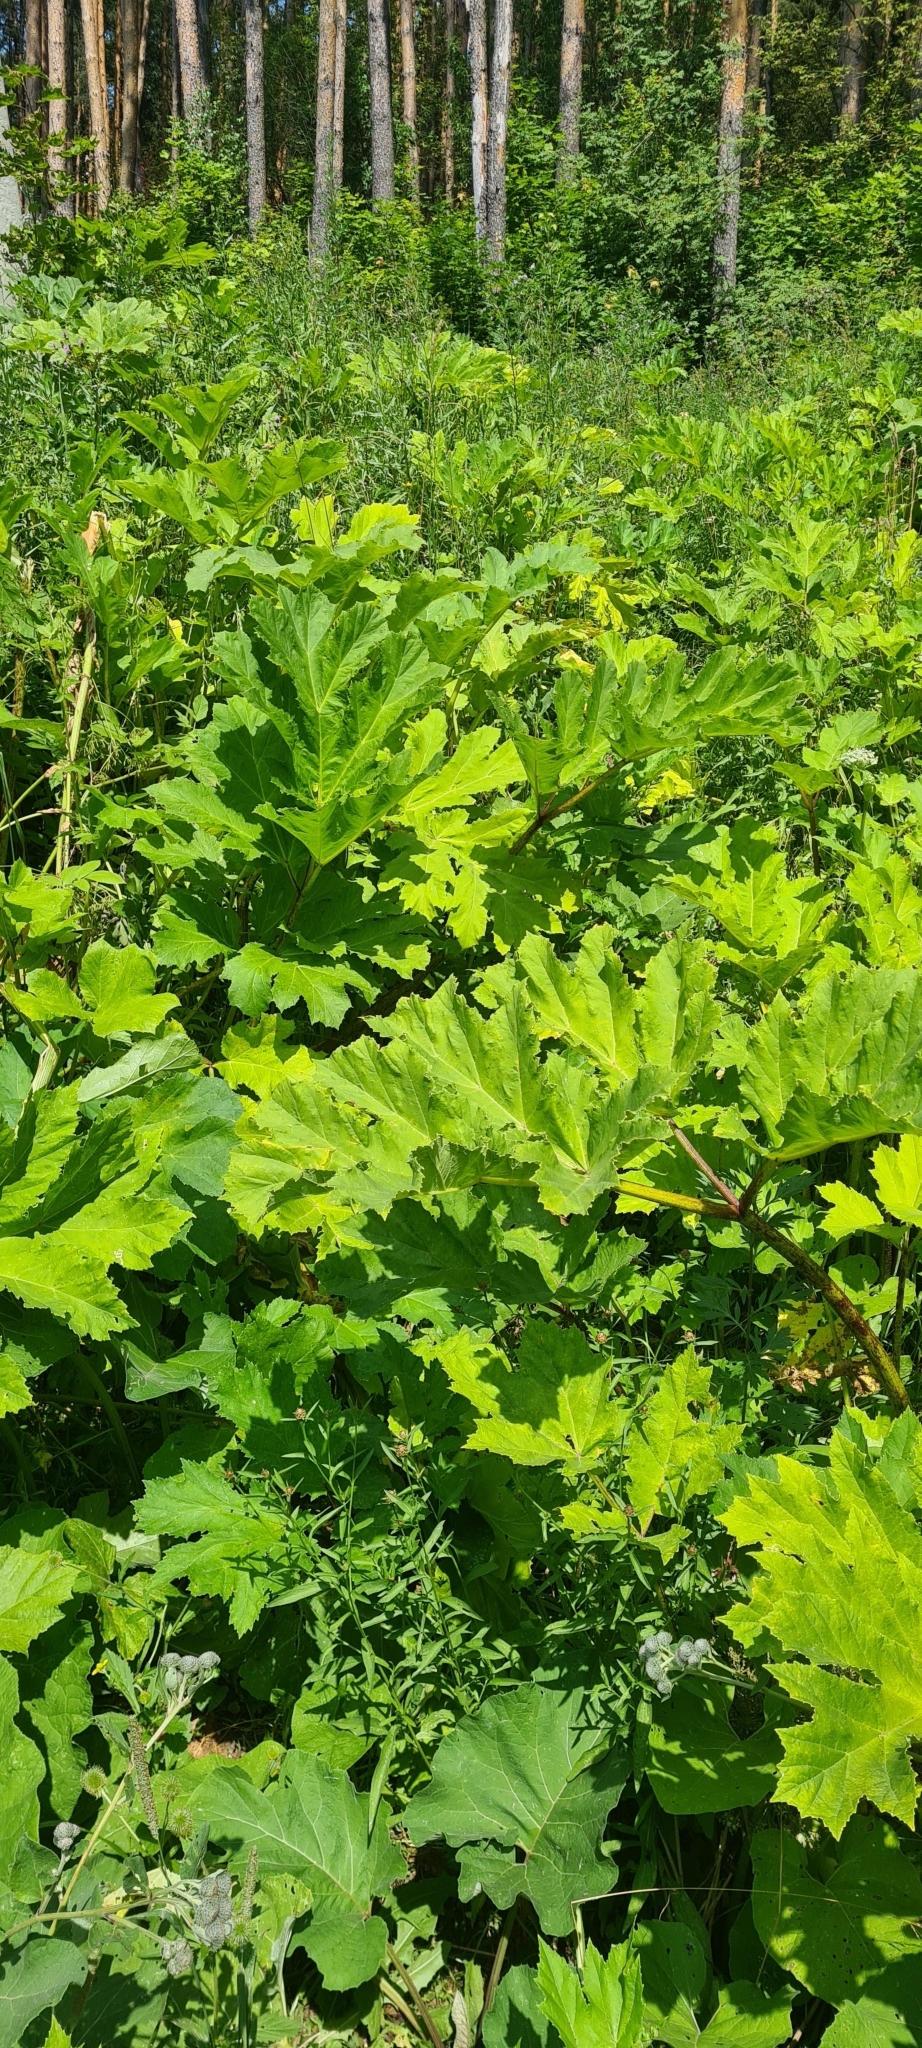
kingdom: Plantae
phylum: Tracheophyta
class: Magnoliopsida
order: Apiales
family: Apiaceae
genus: Heracleum
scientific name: Heracleum sosnowskyi
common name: Sosnowsky's hogweed
